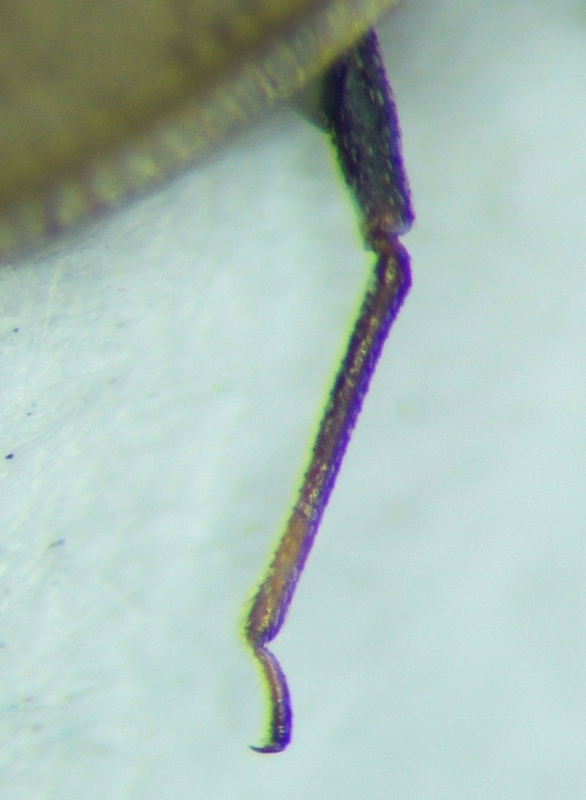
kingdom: Animalia
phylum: Arthropoda
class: Insecta
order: Hemiptera
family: Tingidae
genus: Catoplatus
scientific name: Catoplatus carthusianus
